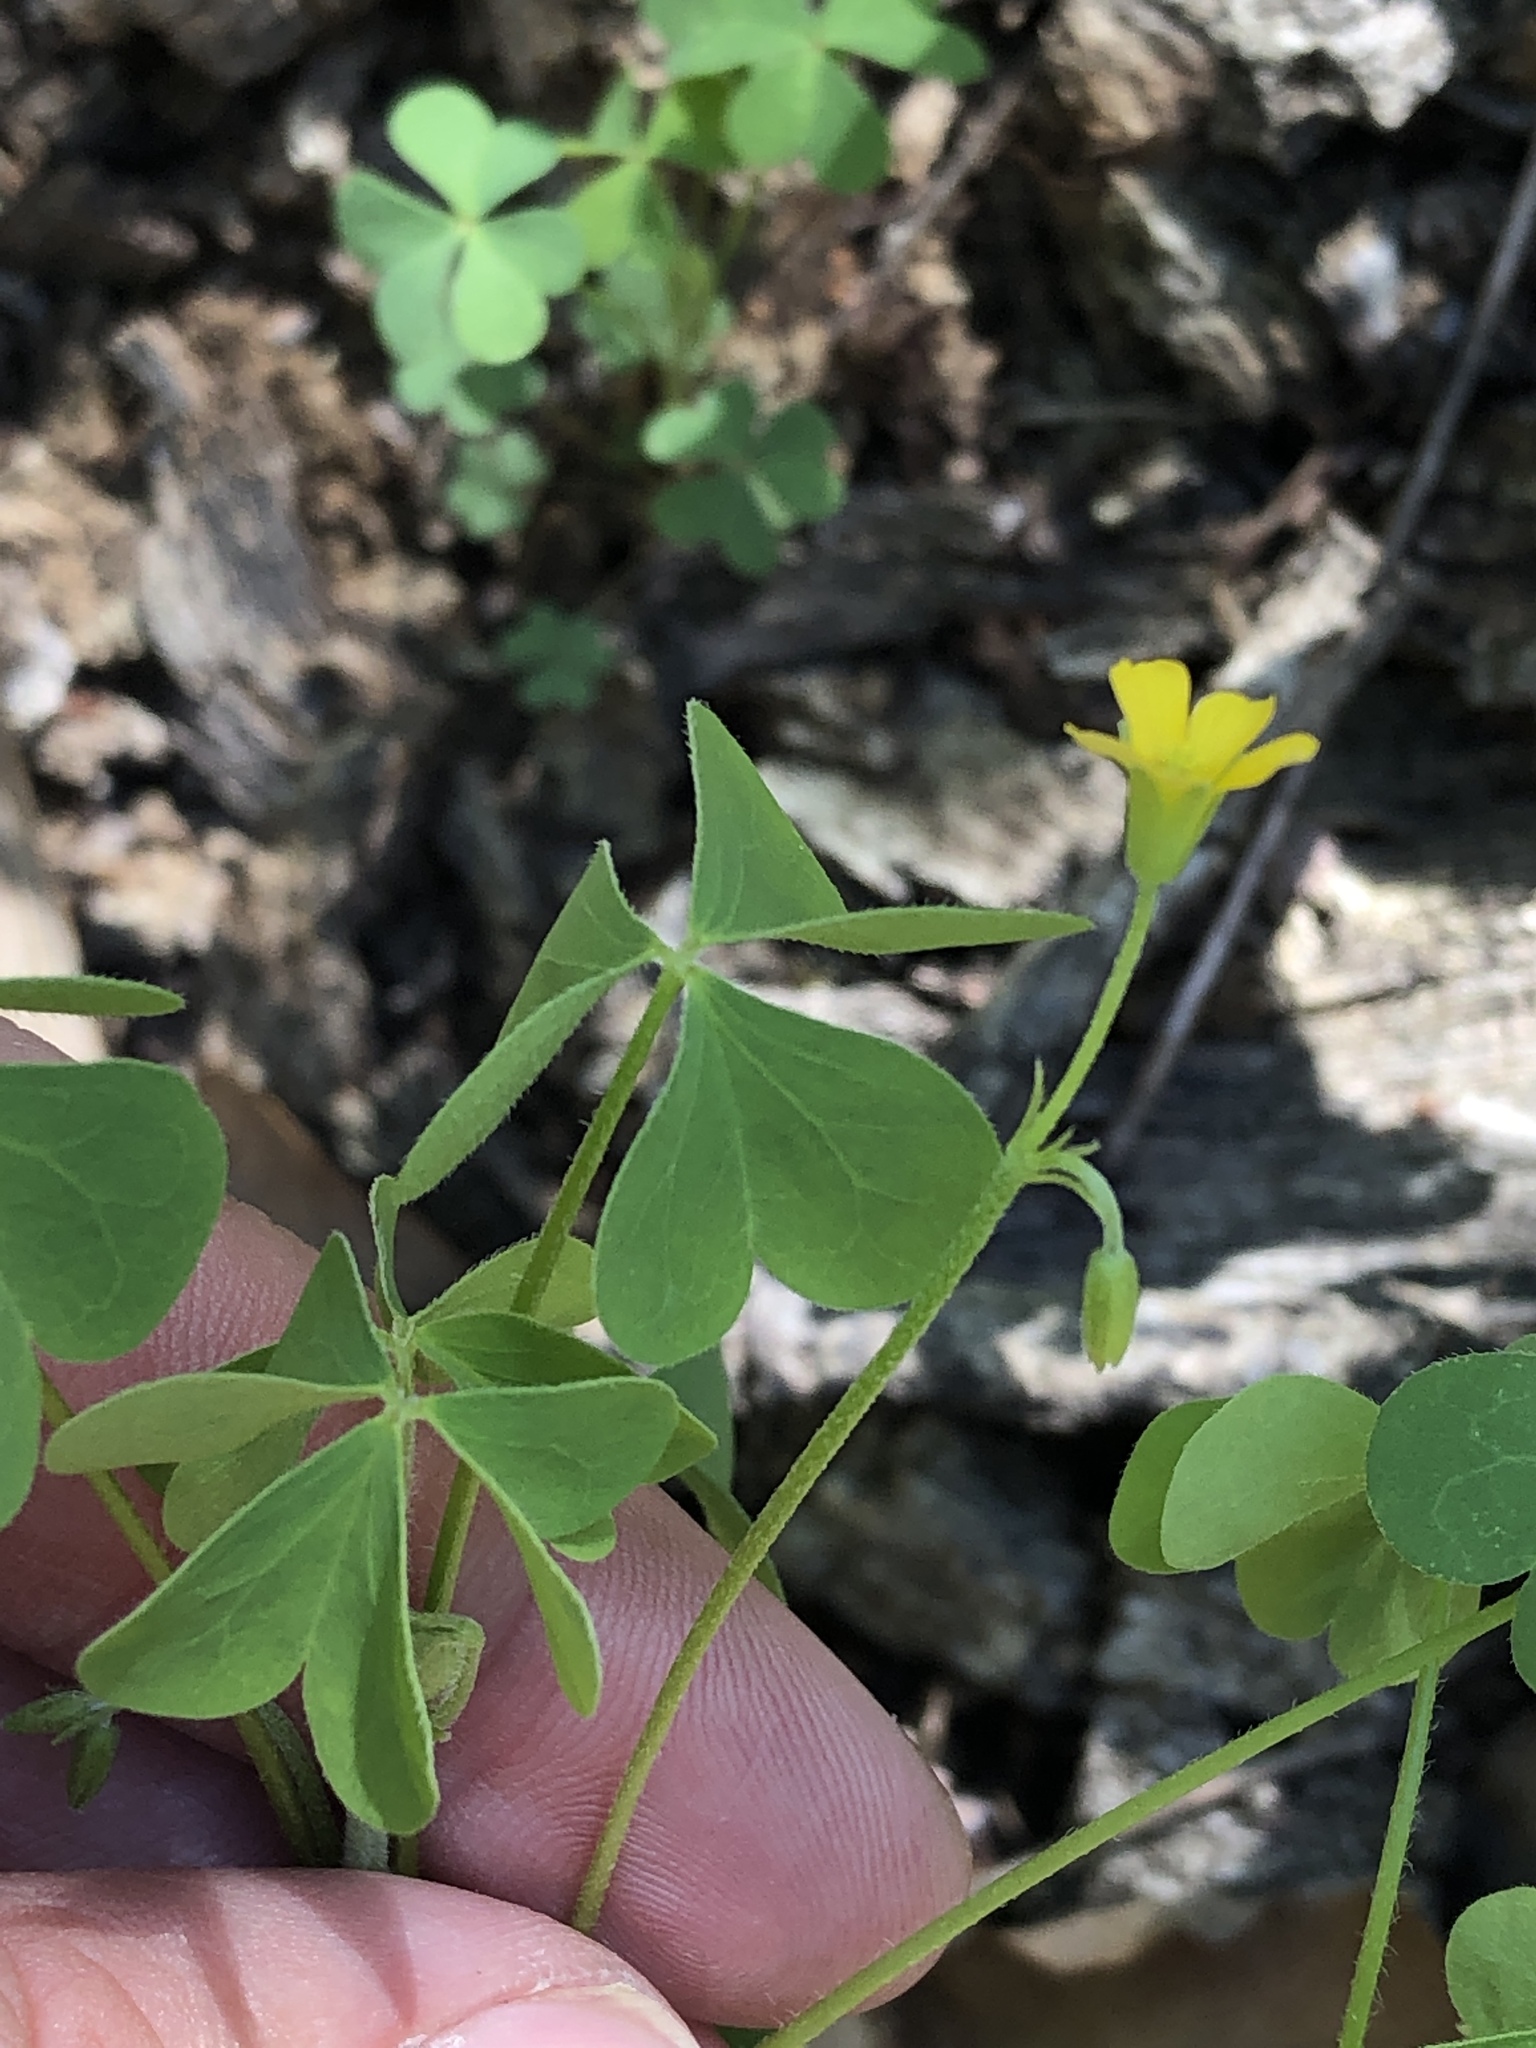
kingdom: Plantae
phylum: Tracheophyta
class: Magnoliopsida
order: Oxalidales
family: Oxalidaceae
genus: Oxalis
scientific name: Oxalis dillenii
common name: Sussex yellow-sorrel
